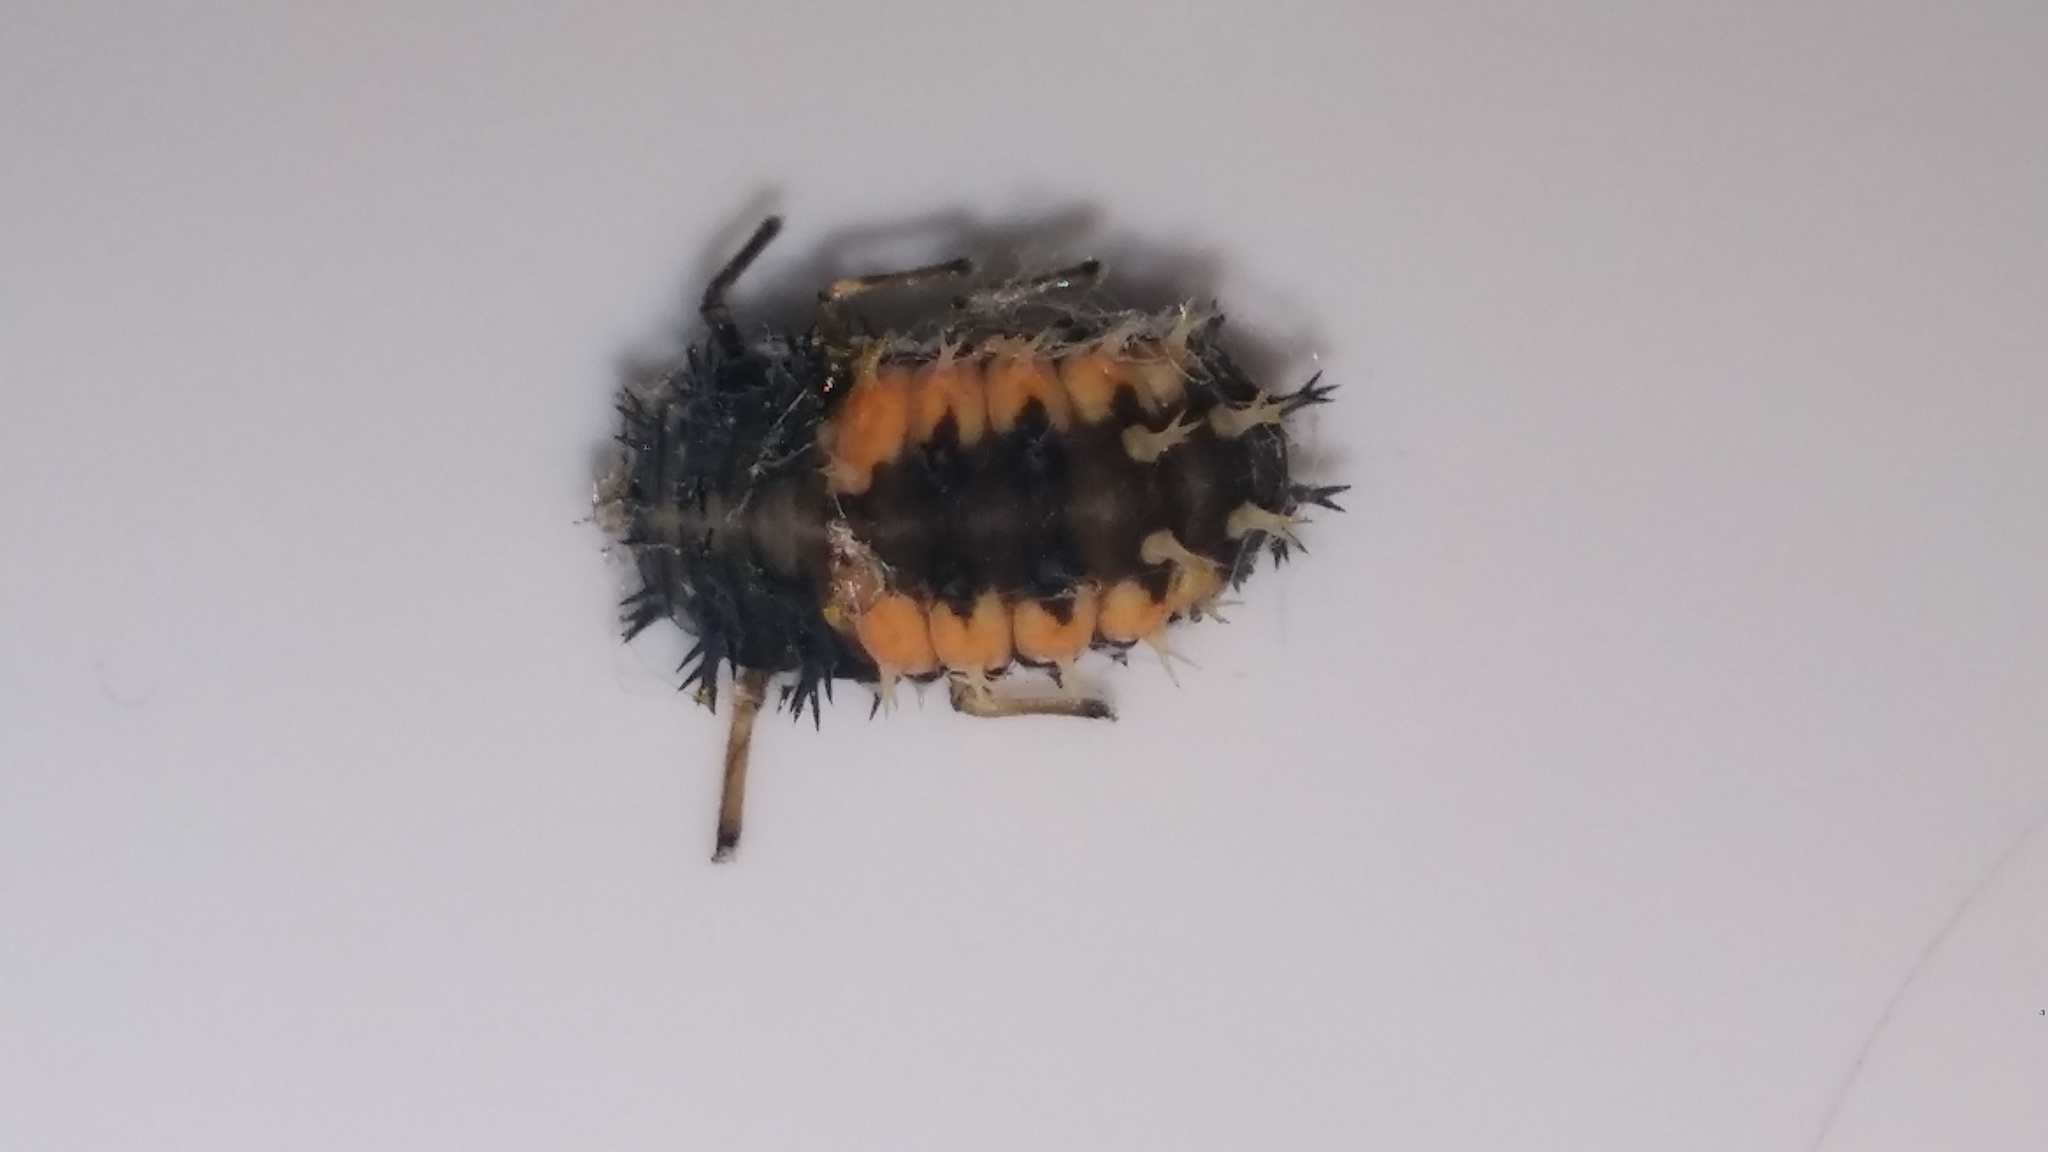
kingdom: Animalia
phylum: Arthropoda
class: Insecta
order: Coleoptera
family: Coccinellidae
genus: Harmonia
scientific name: Harmonia axyridis
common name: Harlequin ladybird
